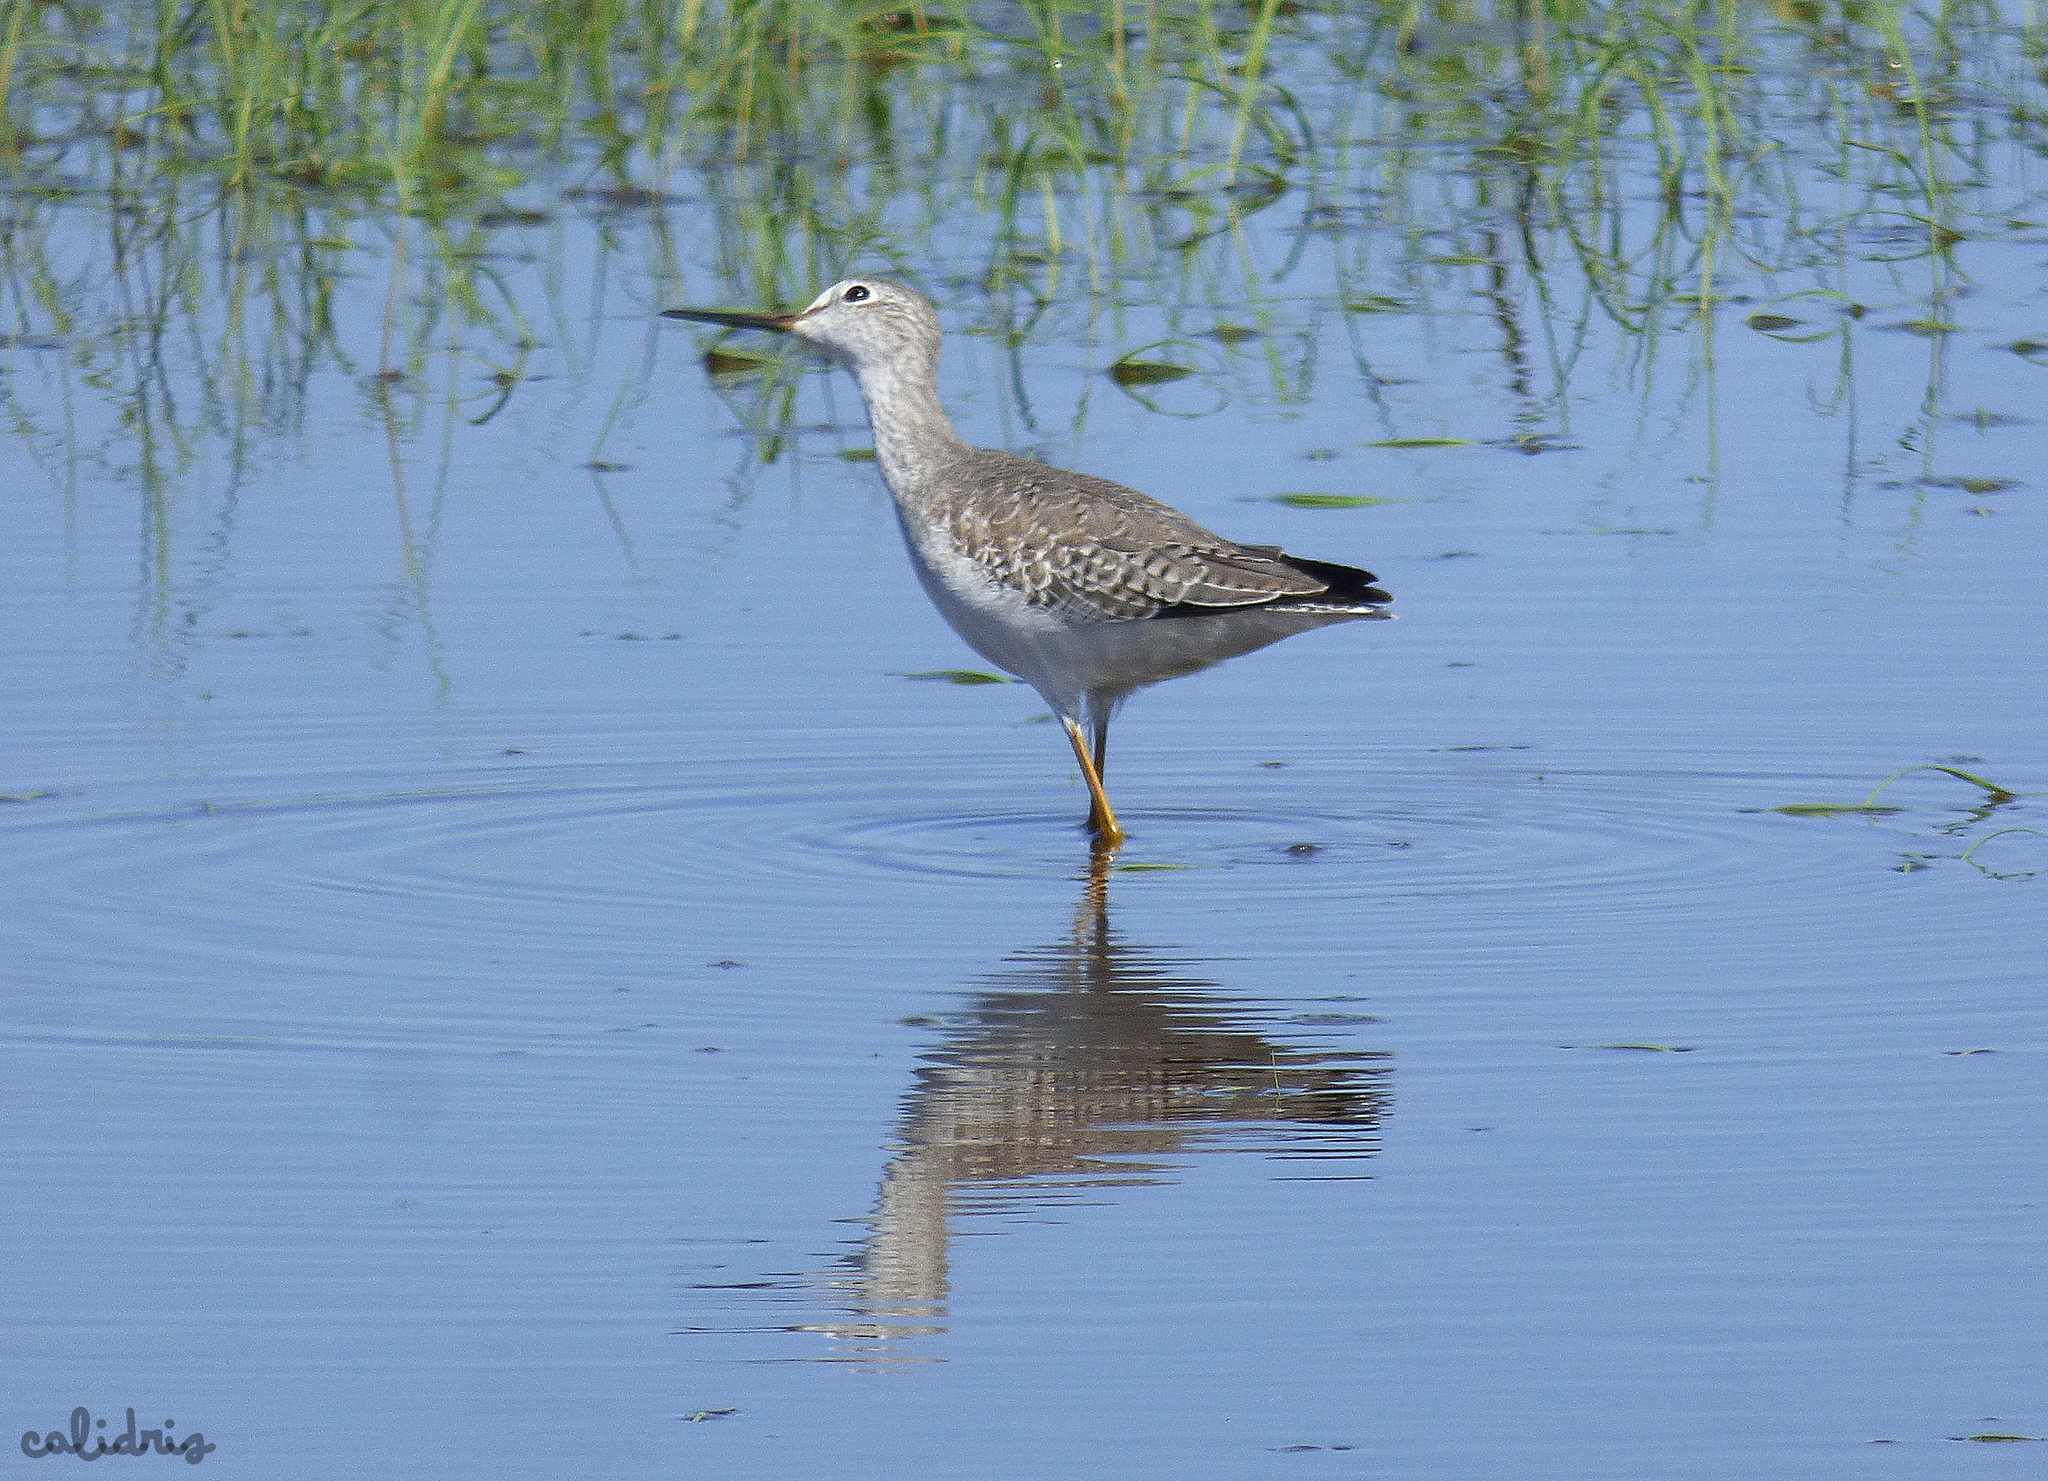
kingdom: Animalia
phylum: Chordata
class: Aves
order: Charadriiformes
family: Scolopacidae
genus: Tringa
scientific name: Tringa flavipes
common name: Lesser yellowlegs
